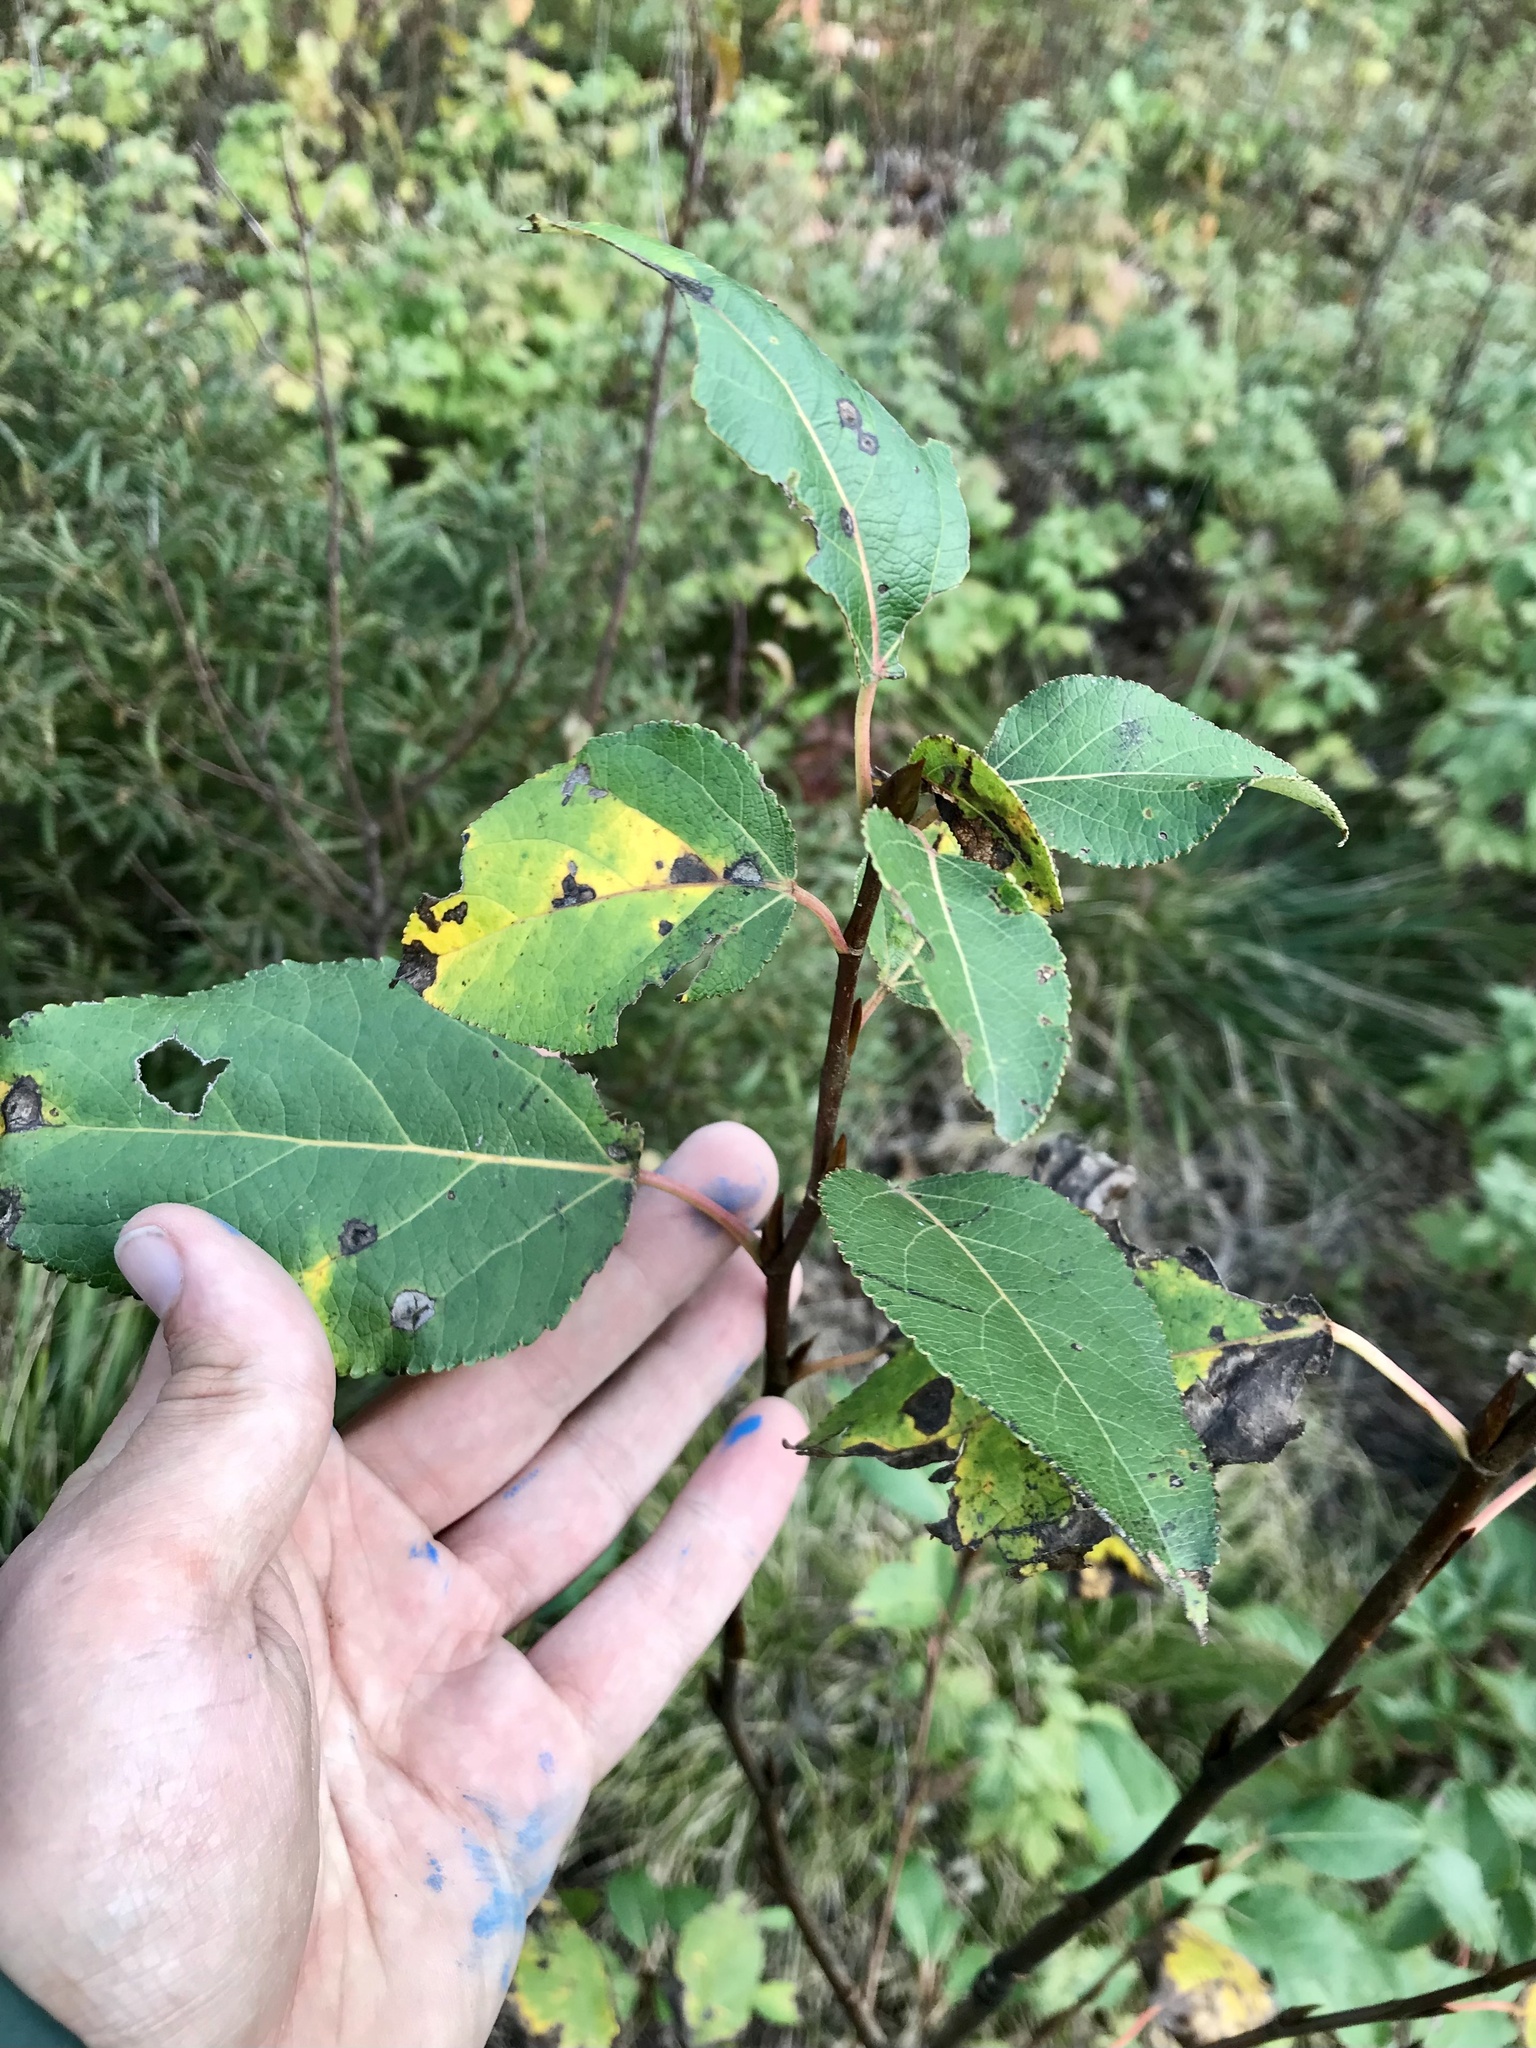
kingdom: Plantae
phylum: Tracheophyta
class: Magnoliopsida
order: Malpighiales
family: Salicaceae
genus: Populus
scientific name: Populus balsamifera
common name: Balsam poplar
